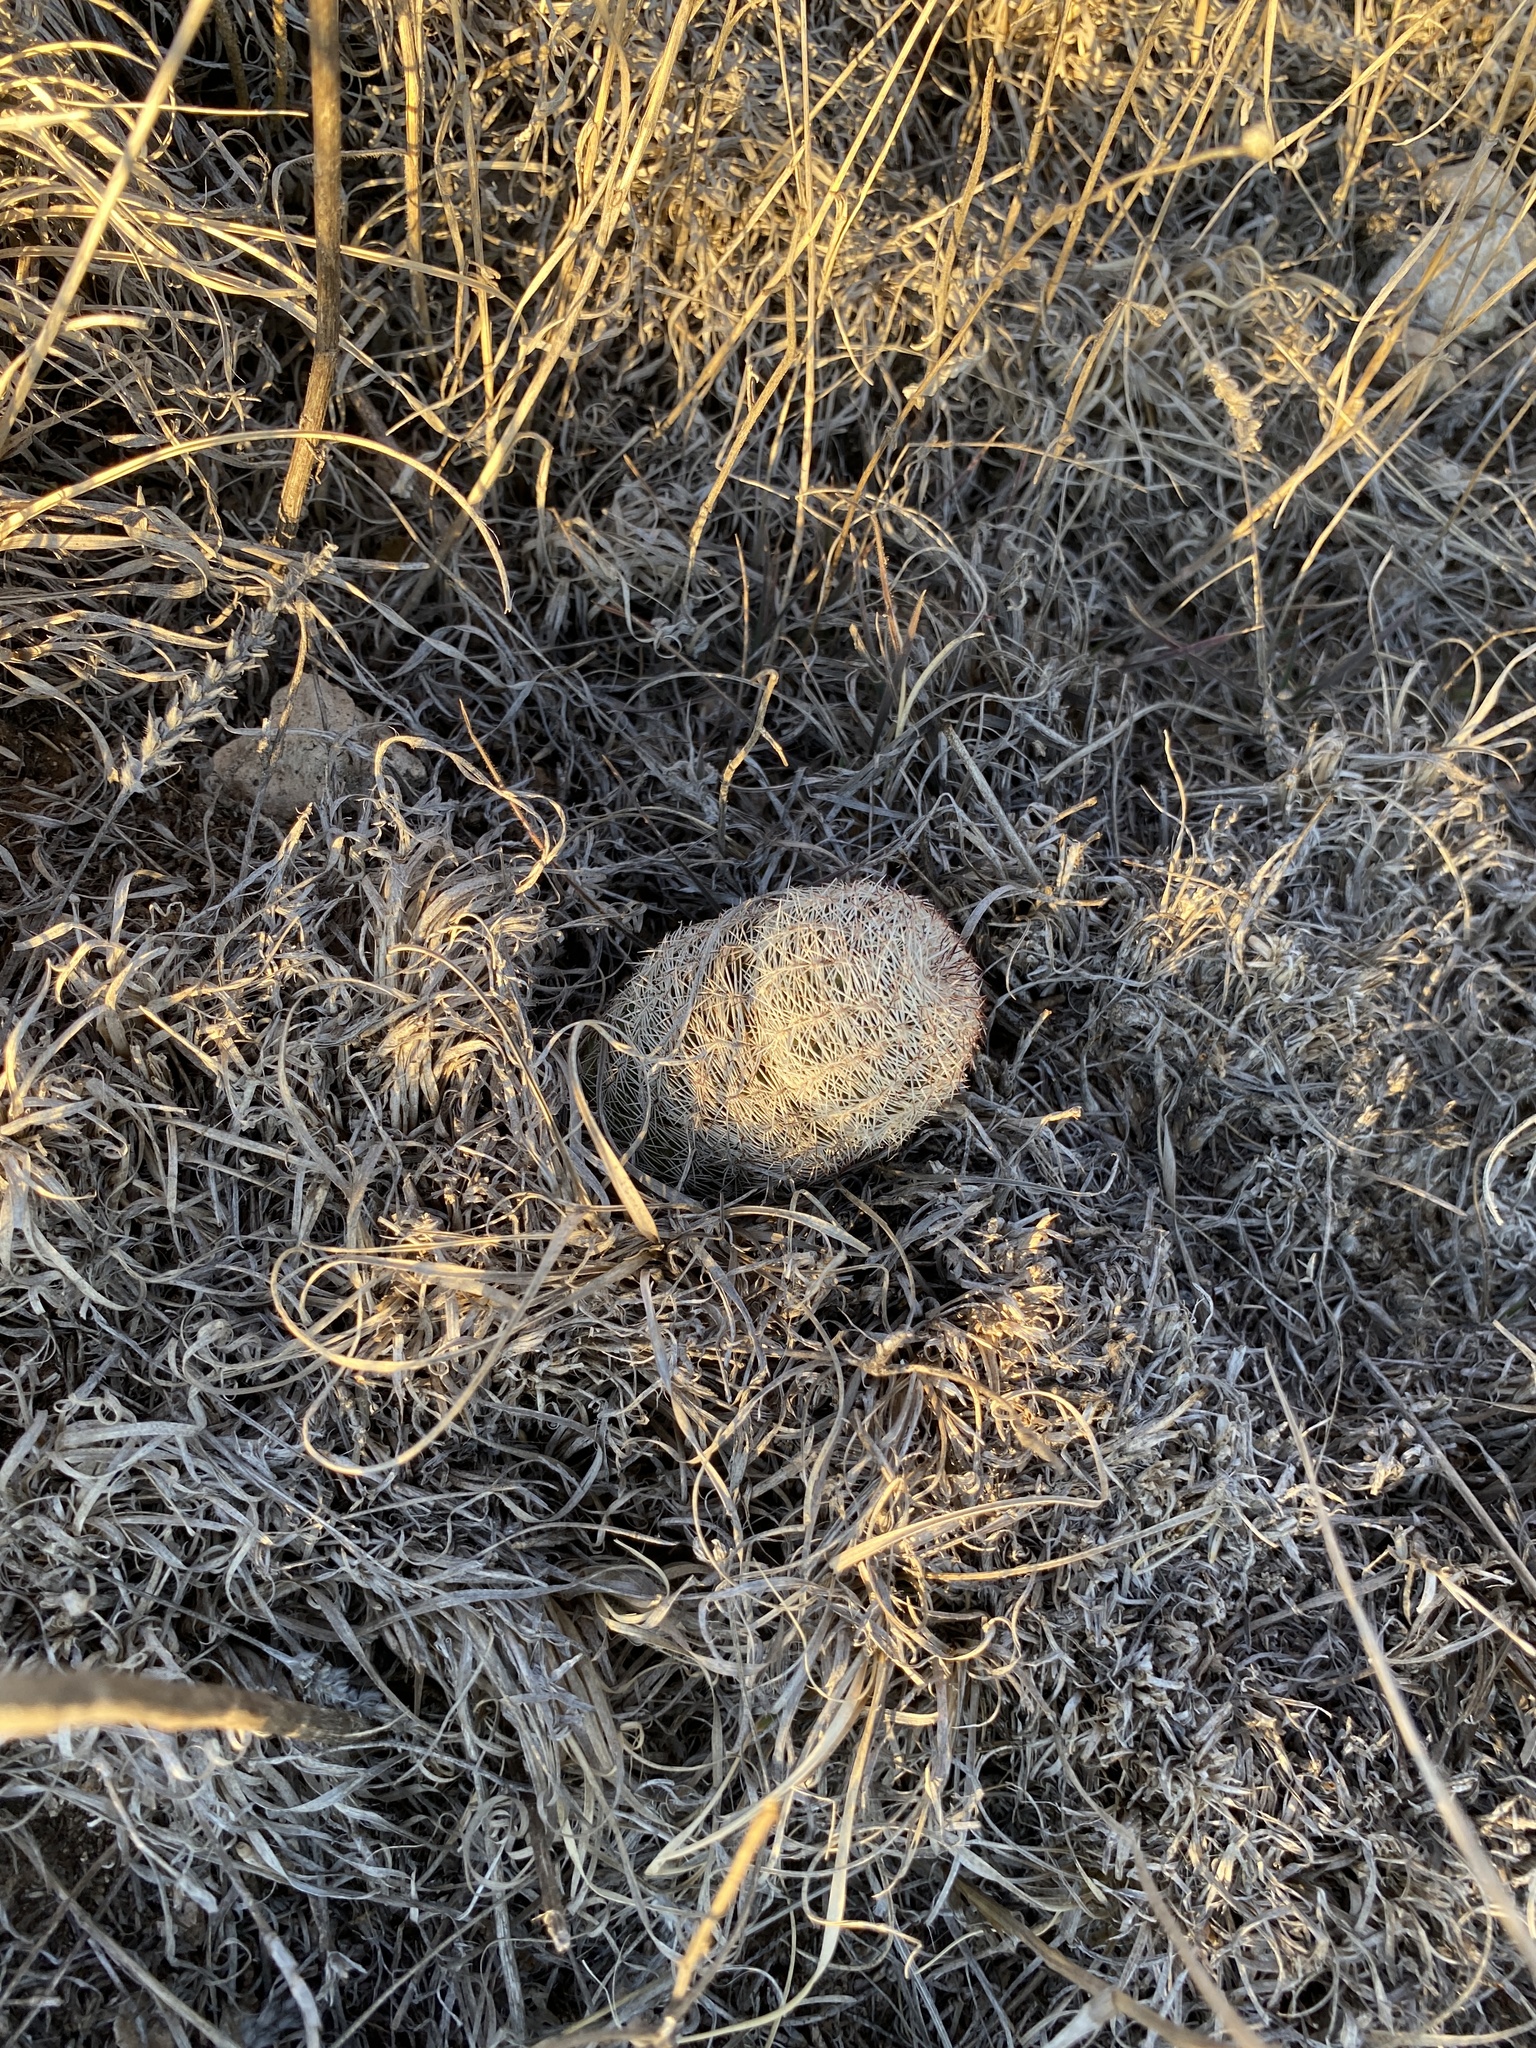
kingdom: Plantae
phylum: Tracheophyta
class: Magnoliopsida
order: Caryophyllales
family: Cactaceae
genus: Echinocereus
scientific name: Echinocereus reichenbachii
